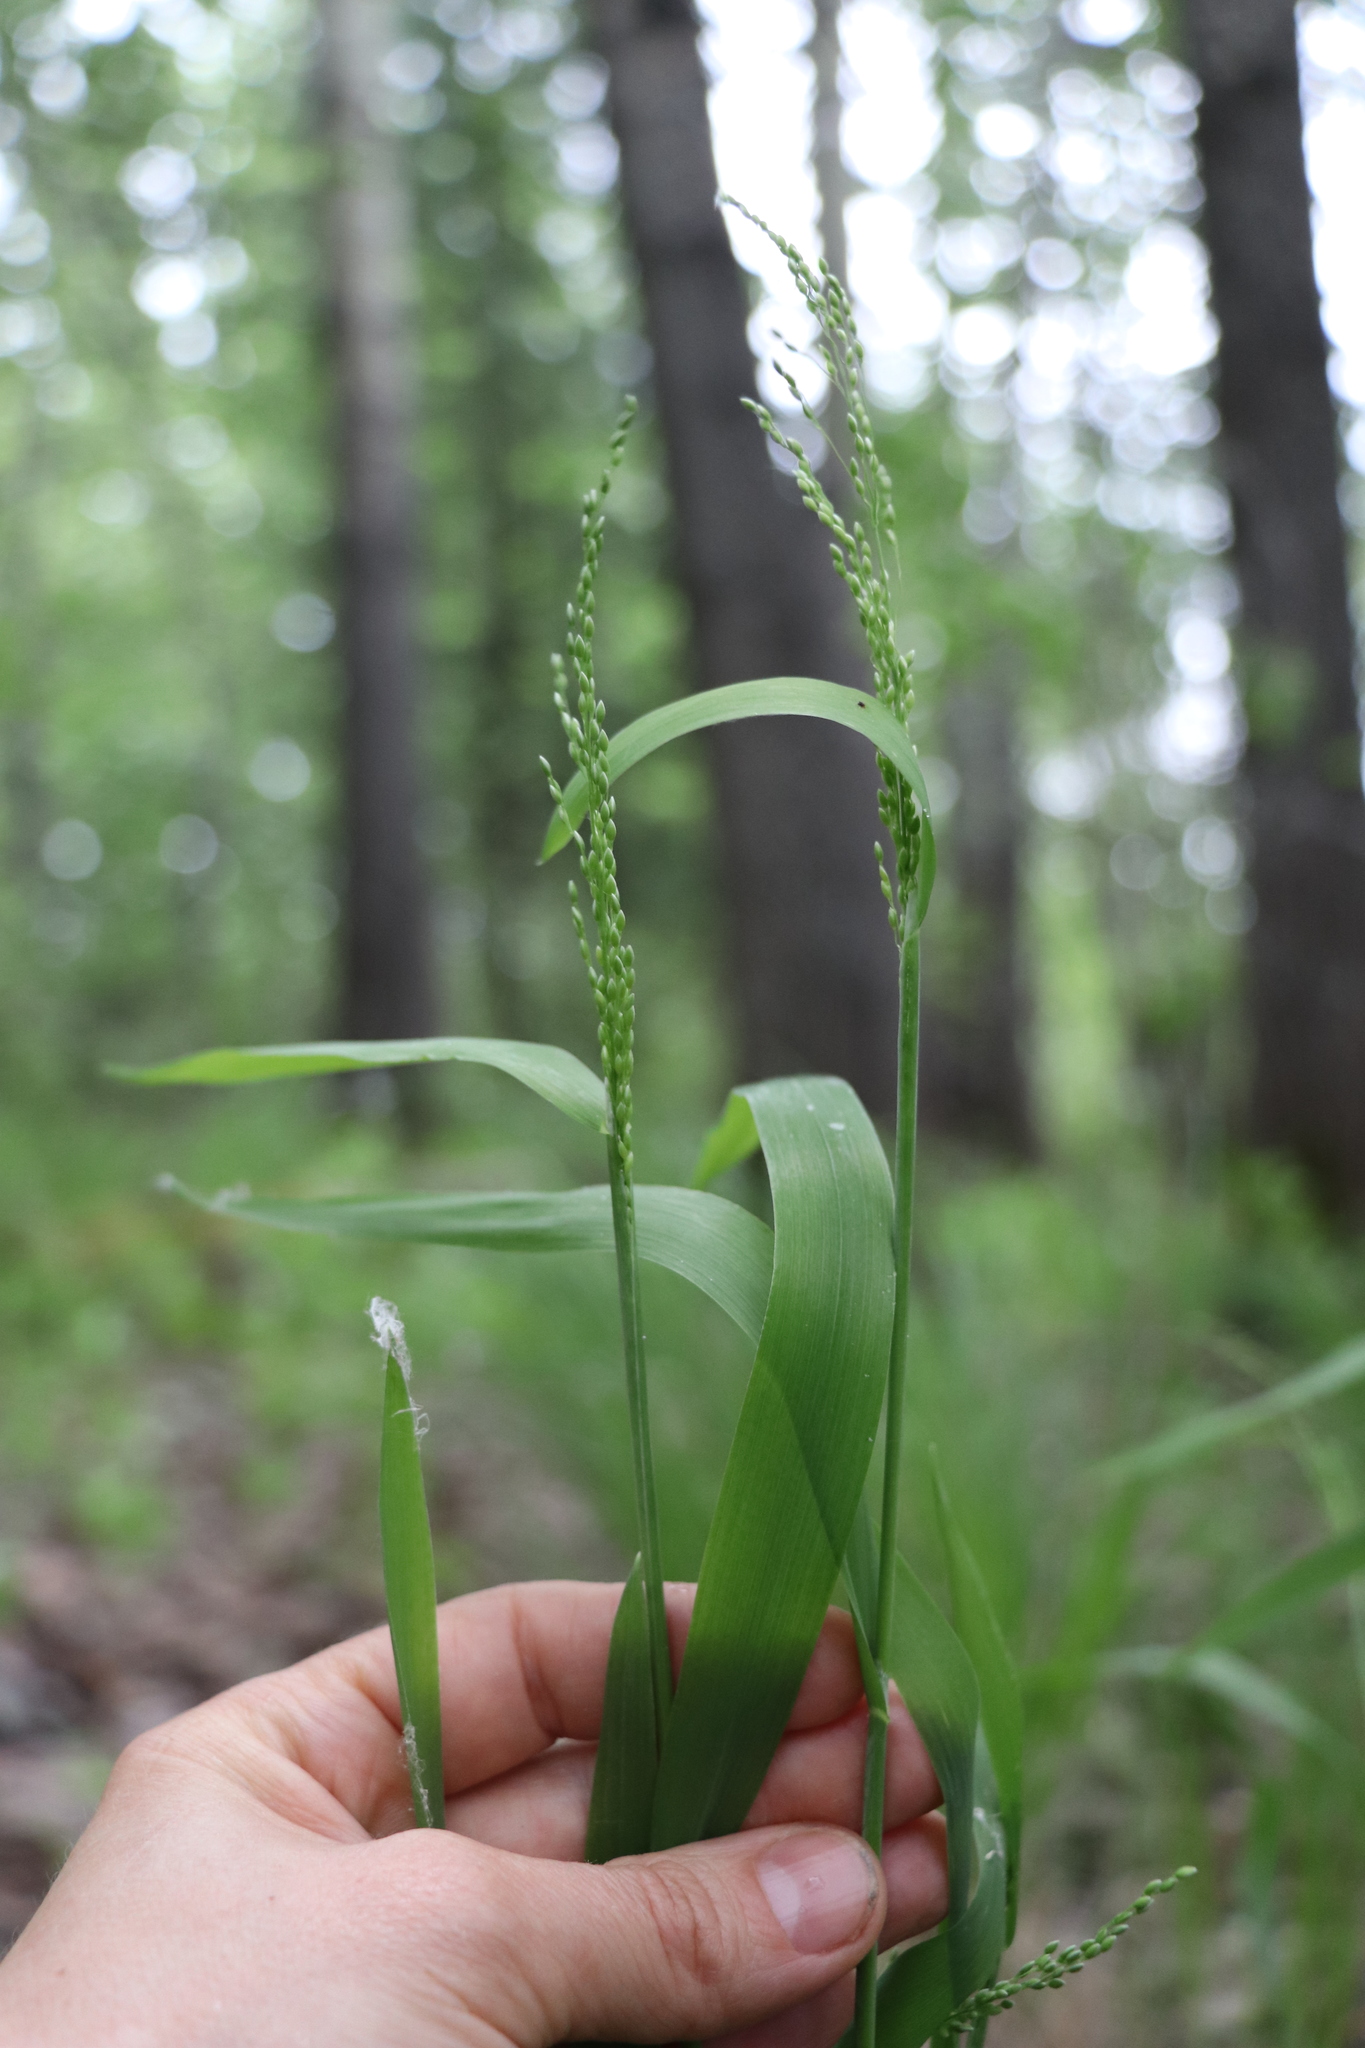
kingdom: Plantae
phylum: Tracheophyta
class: Liliopsida
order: Poales
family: Poaceae
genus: Milium
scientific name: Milium effusum
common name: Wood millet
